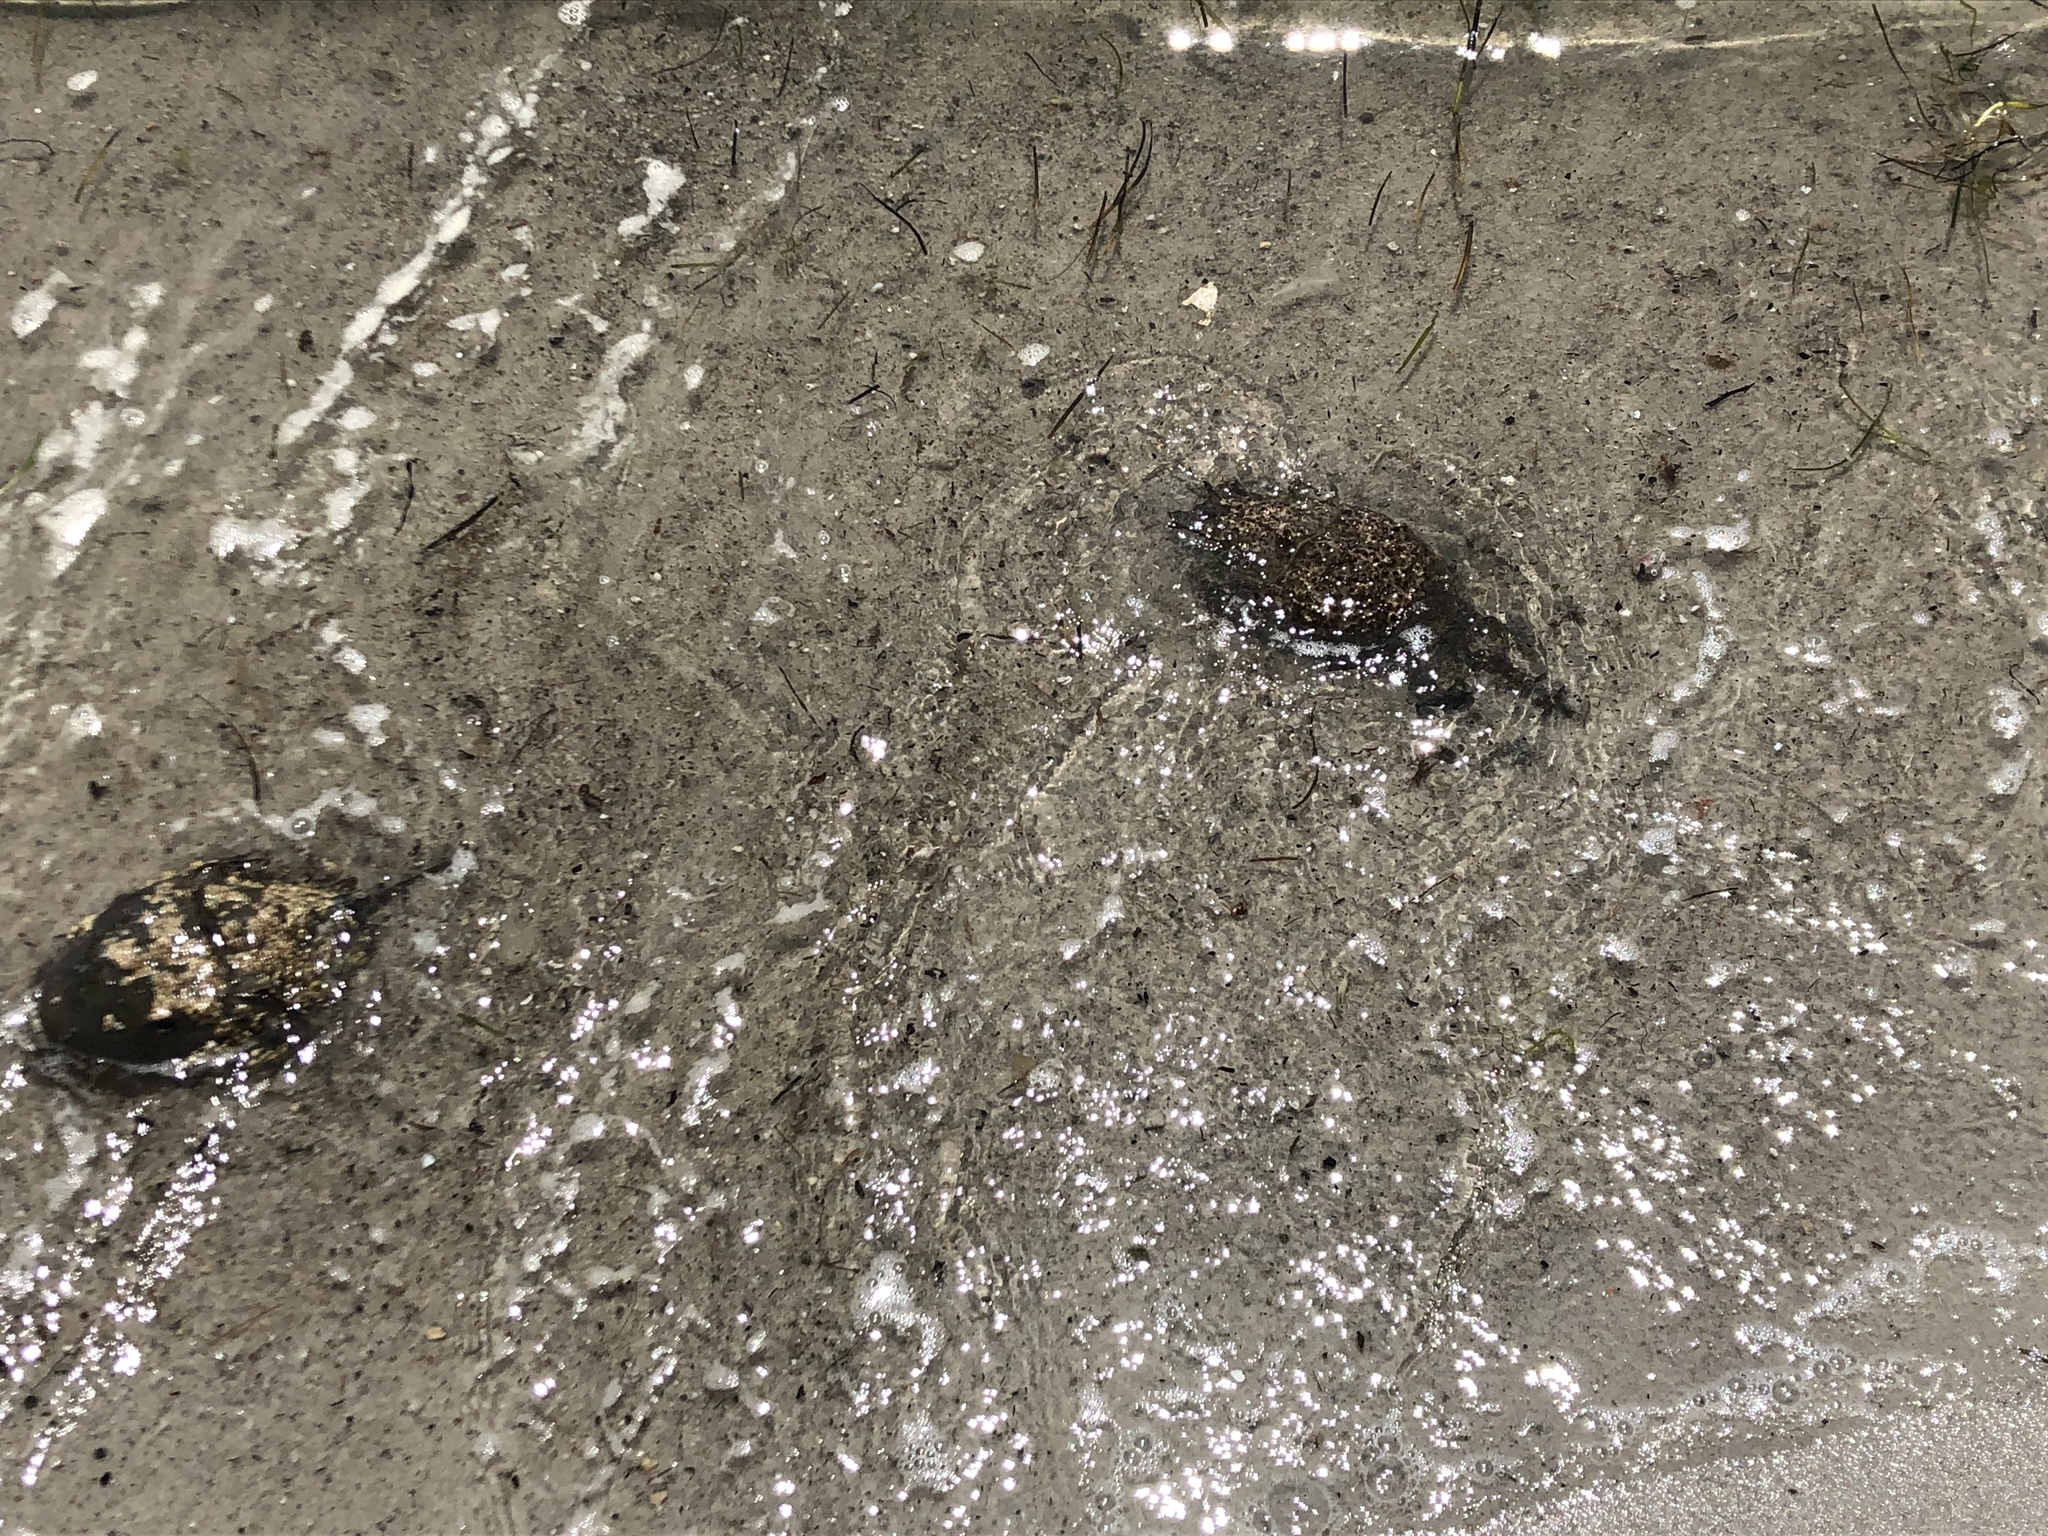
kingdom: Animalia
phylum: Arthropoda
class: Merostomata
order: Xiphosurida
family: Limulidae
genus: Limulus
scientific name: Limulus polyphemus
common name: Horseshoe crab
